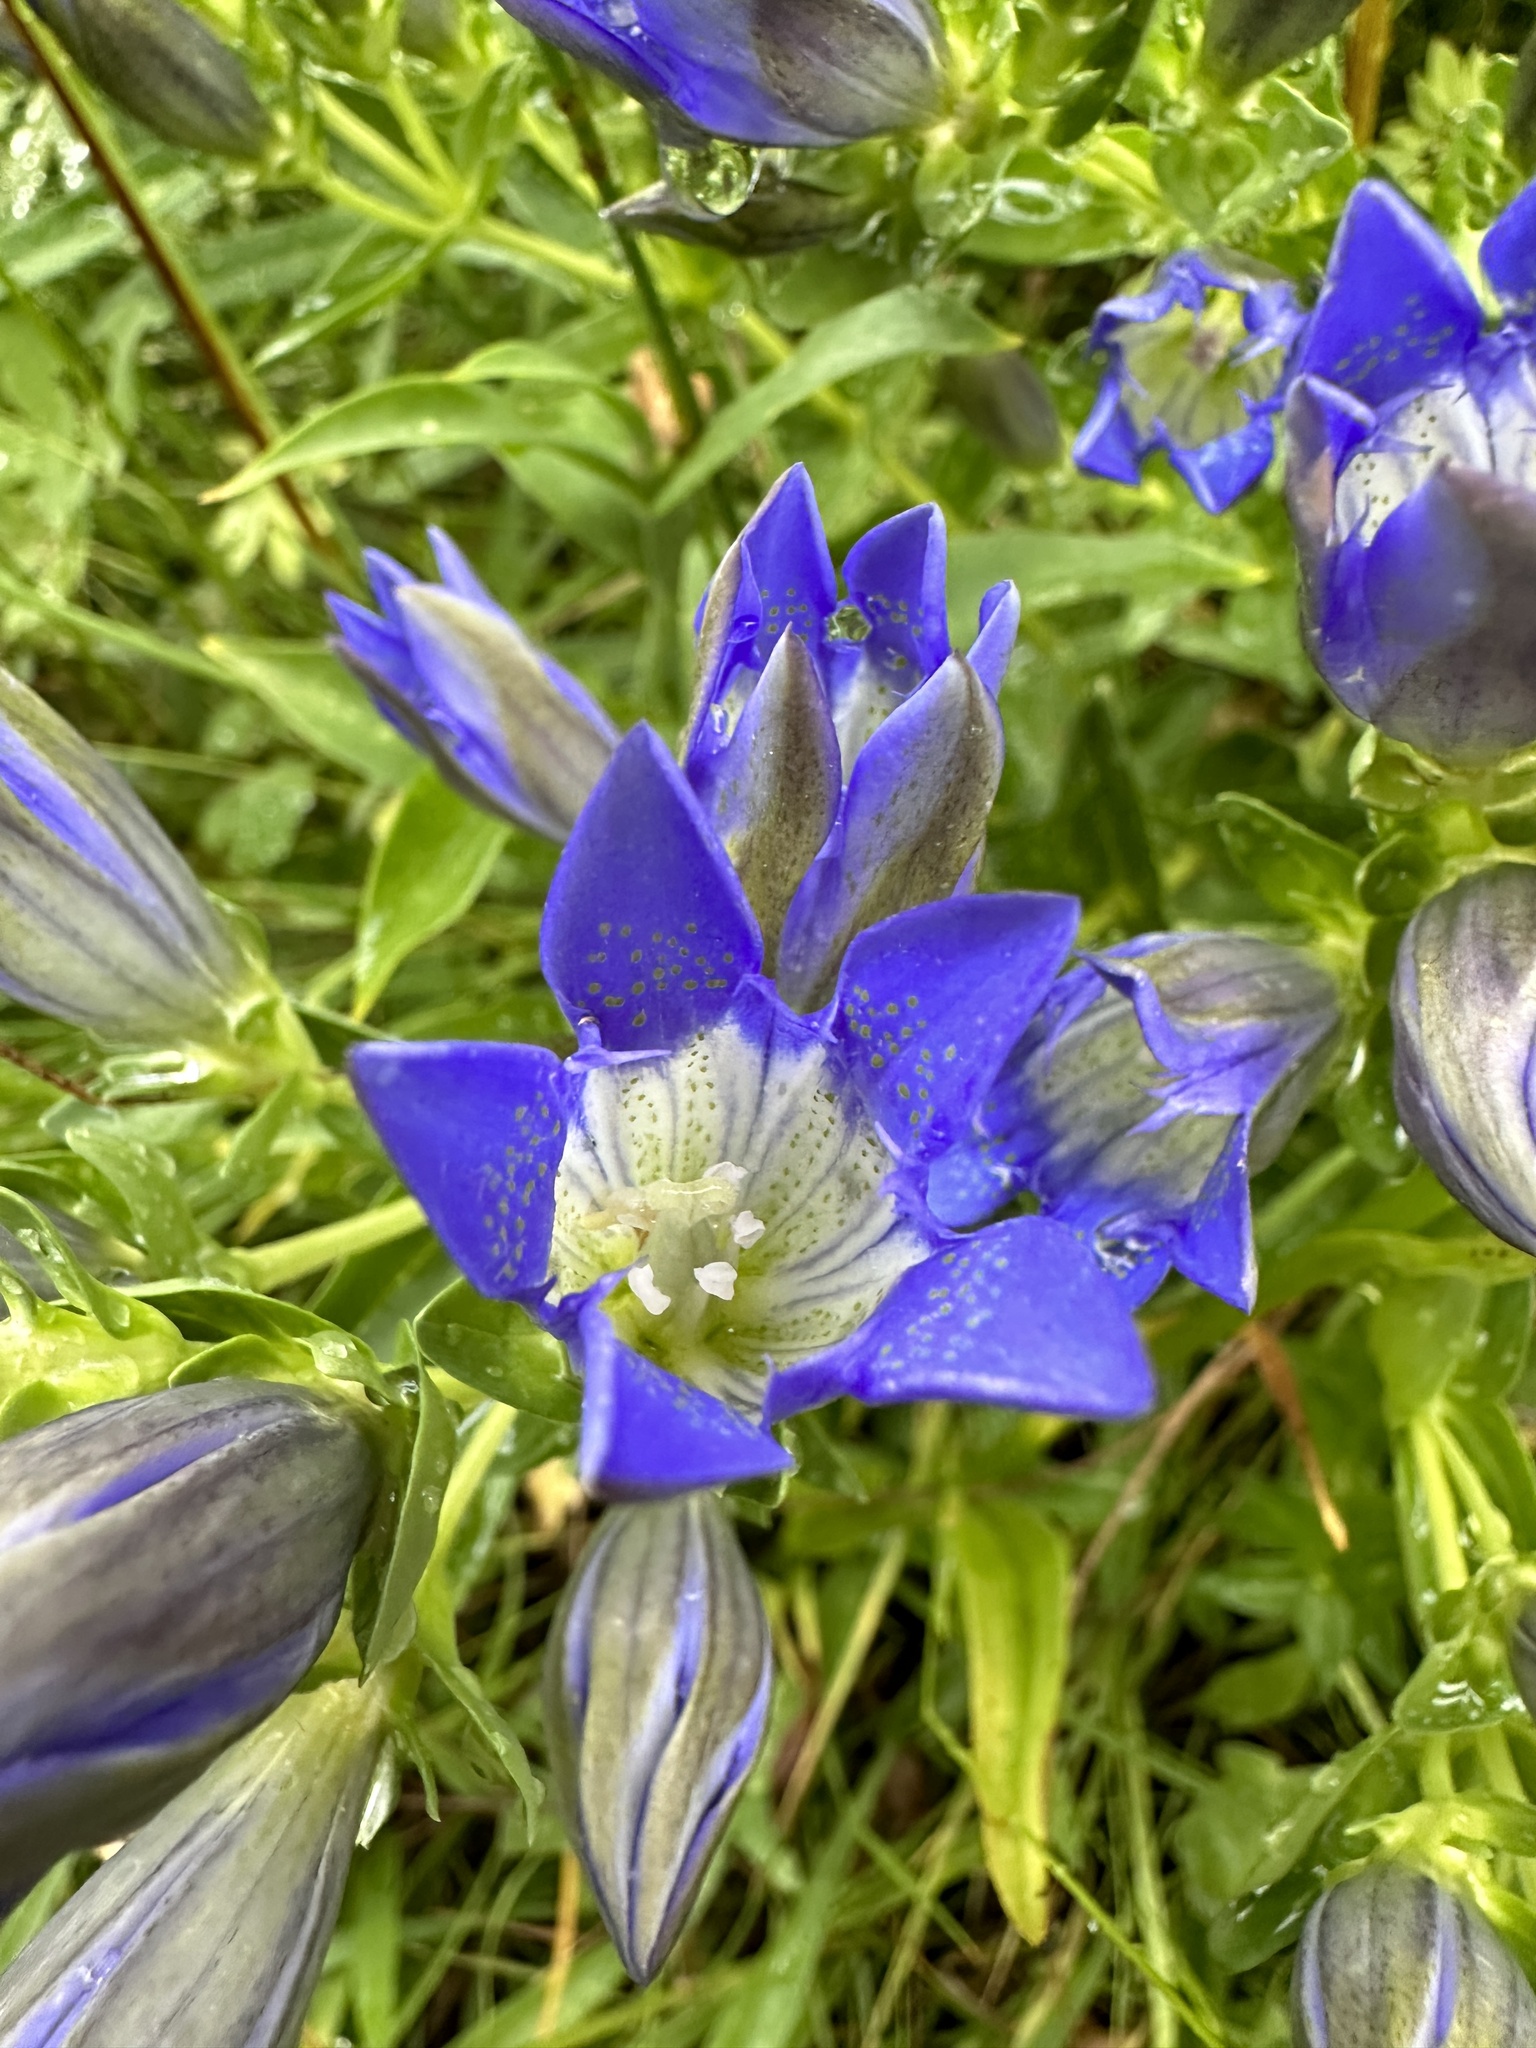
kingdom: Plantae
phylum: Tracheophyta
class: Magnoliopsida
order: Gentianales
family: Gentianaceae
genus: Gentiana
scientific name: Gentiana calycosa
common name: Rainier pleated gentian
